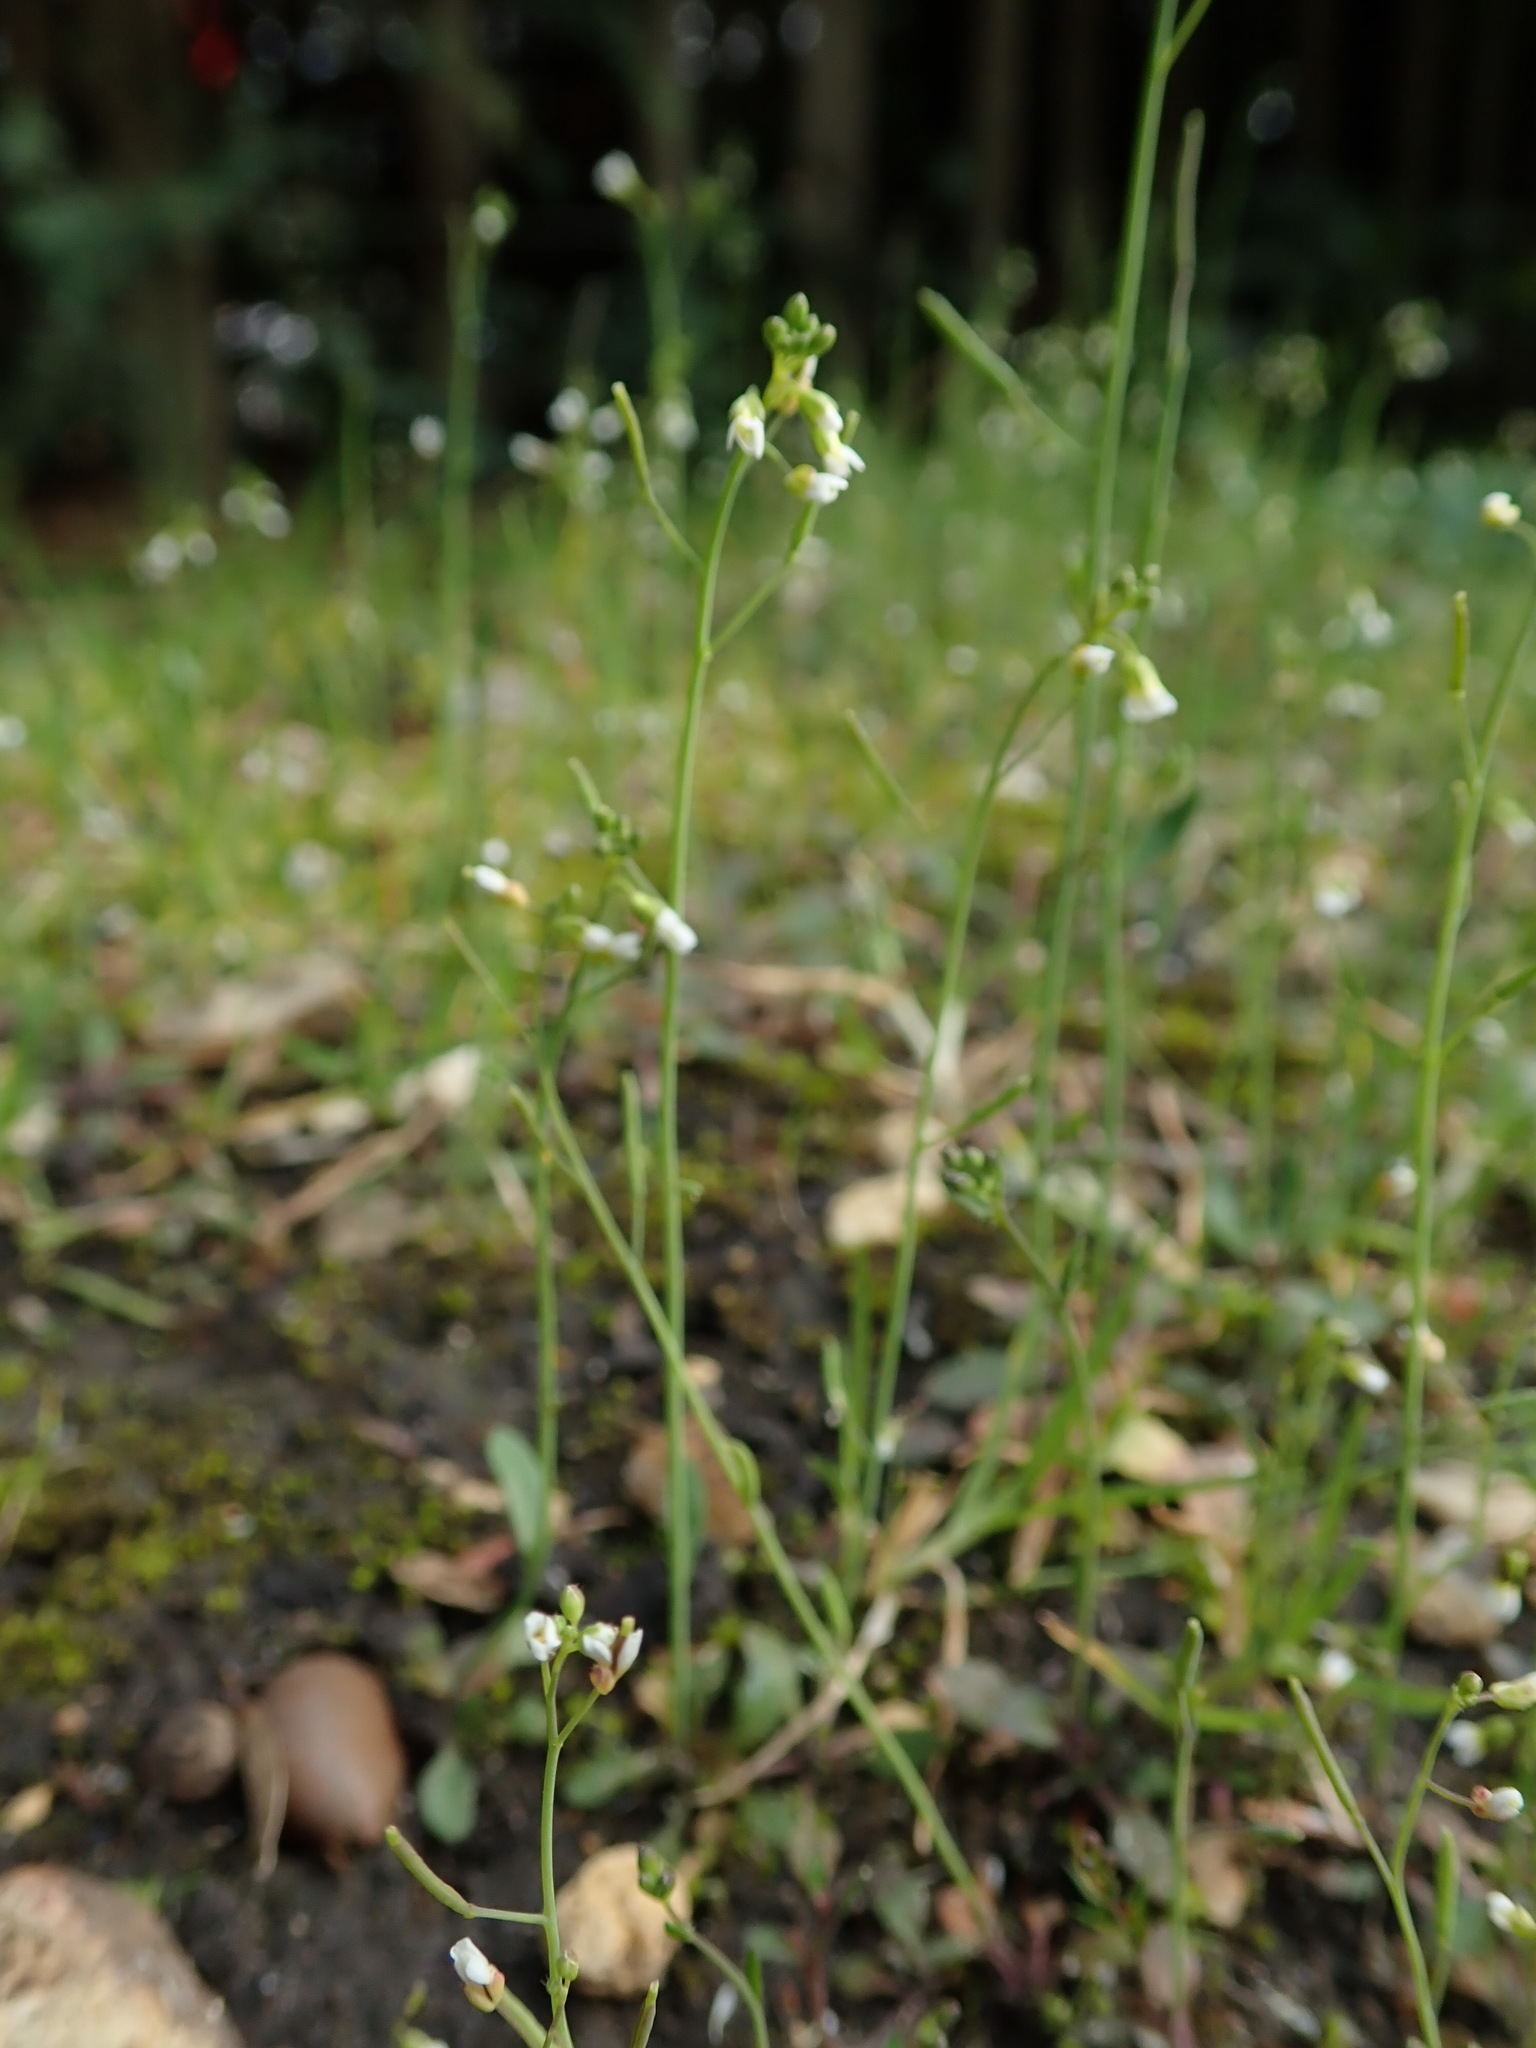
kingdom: Plantae
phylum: Tracheophyta
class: Magnoliopsida
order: Brassicales
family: Brassicaceae
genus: Arabidopsis
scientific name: Arabidopsis thaliana
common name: Thale cress
